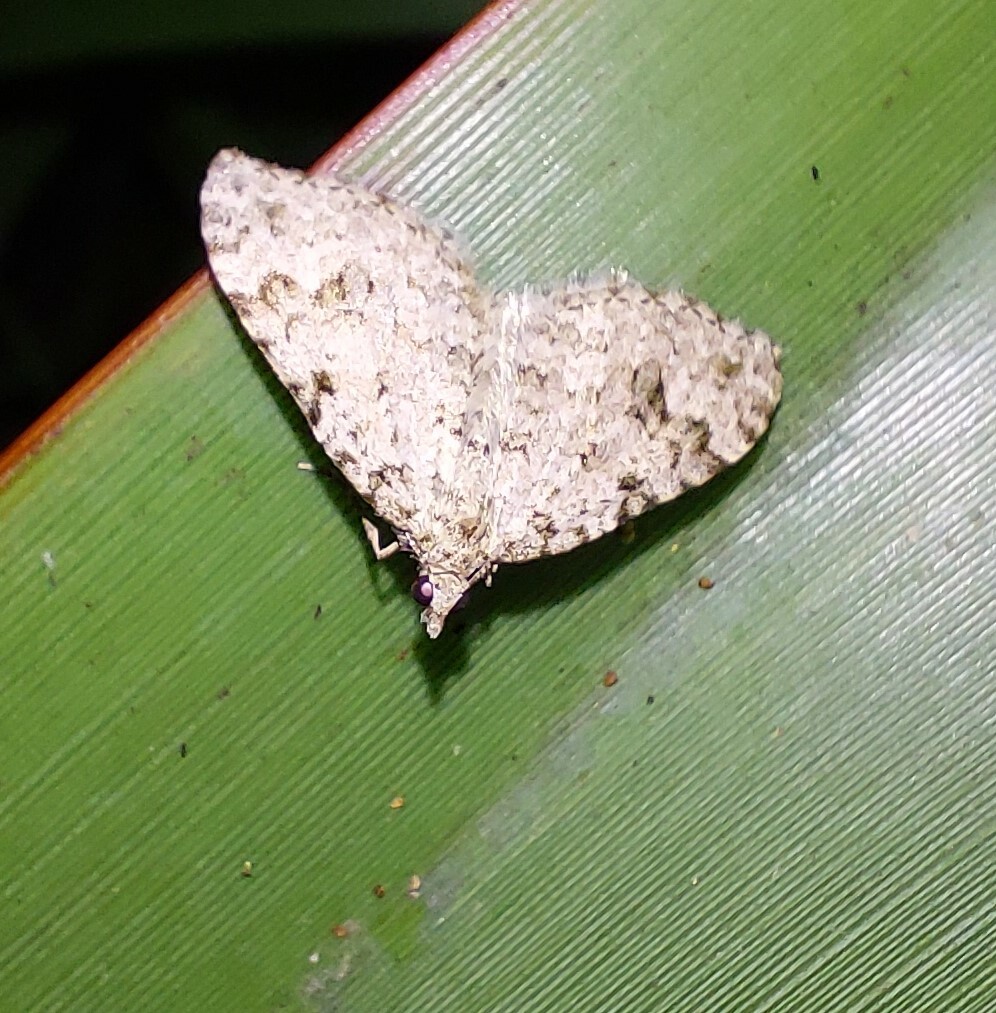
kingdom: Animalia
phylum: Arthropoda
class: Insecta
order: Lepidoptera
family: Geometridae
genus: Helastia
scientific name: Helastia cinerearia
